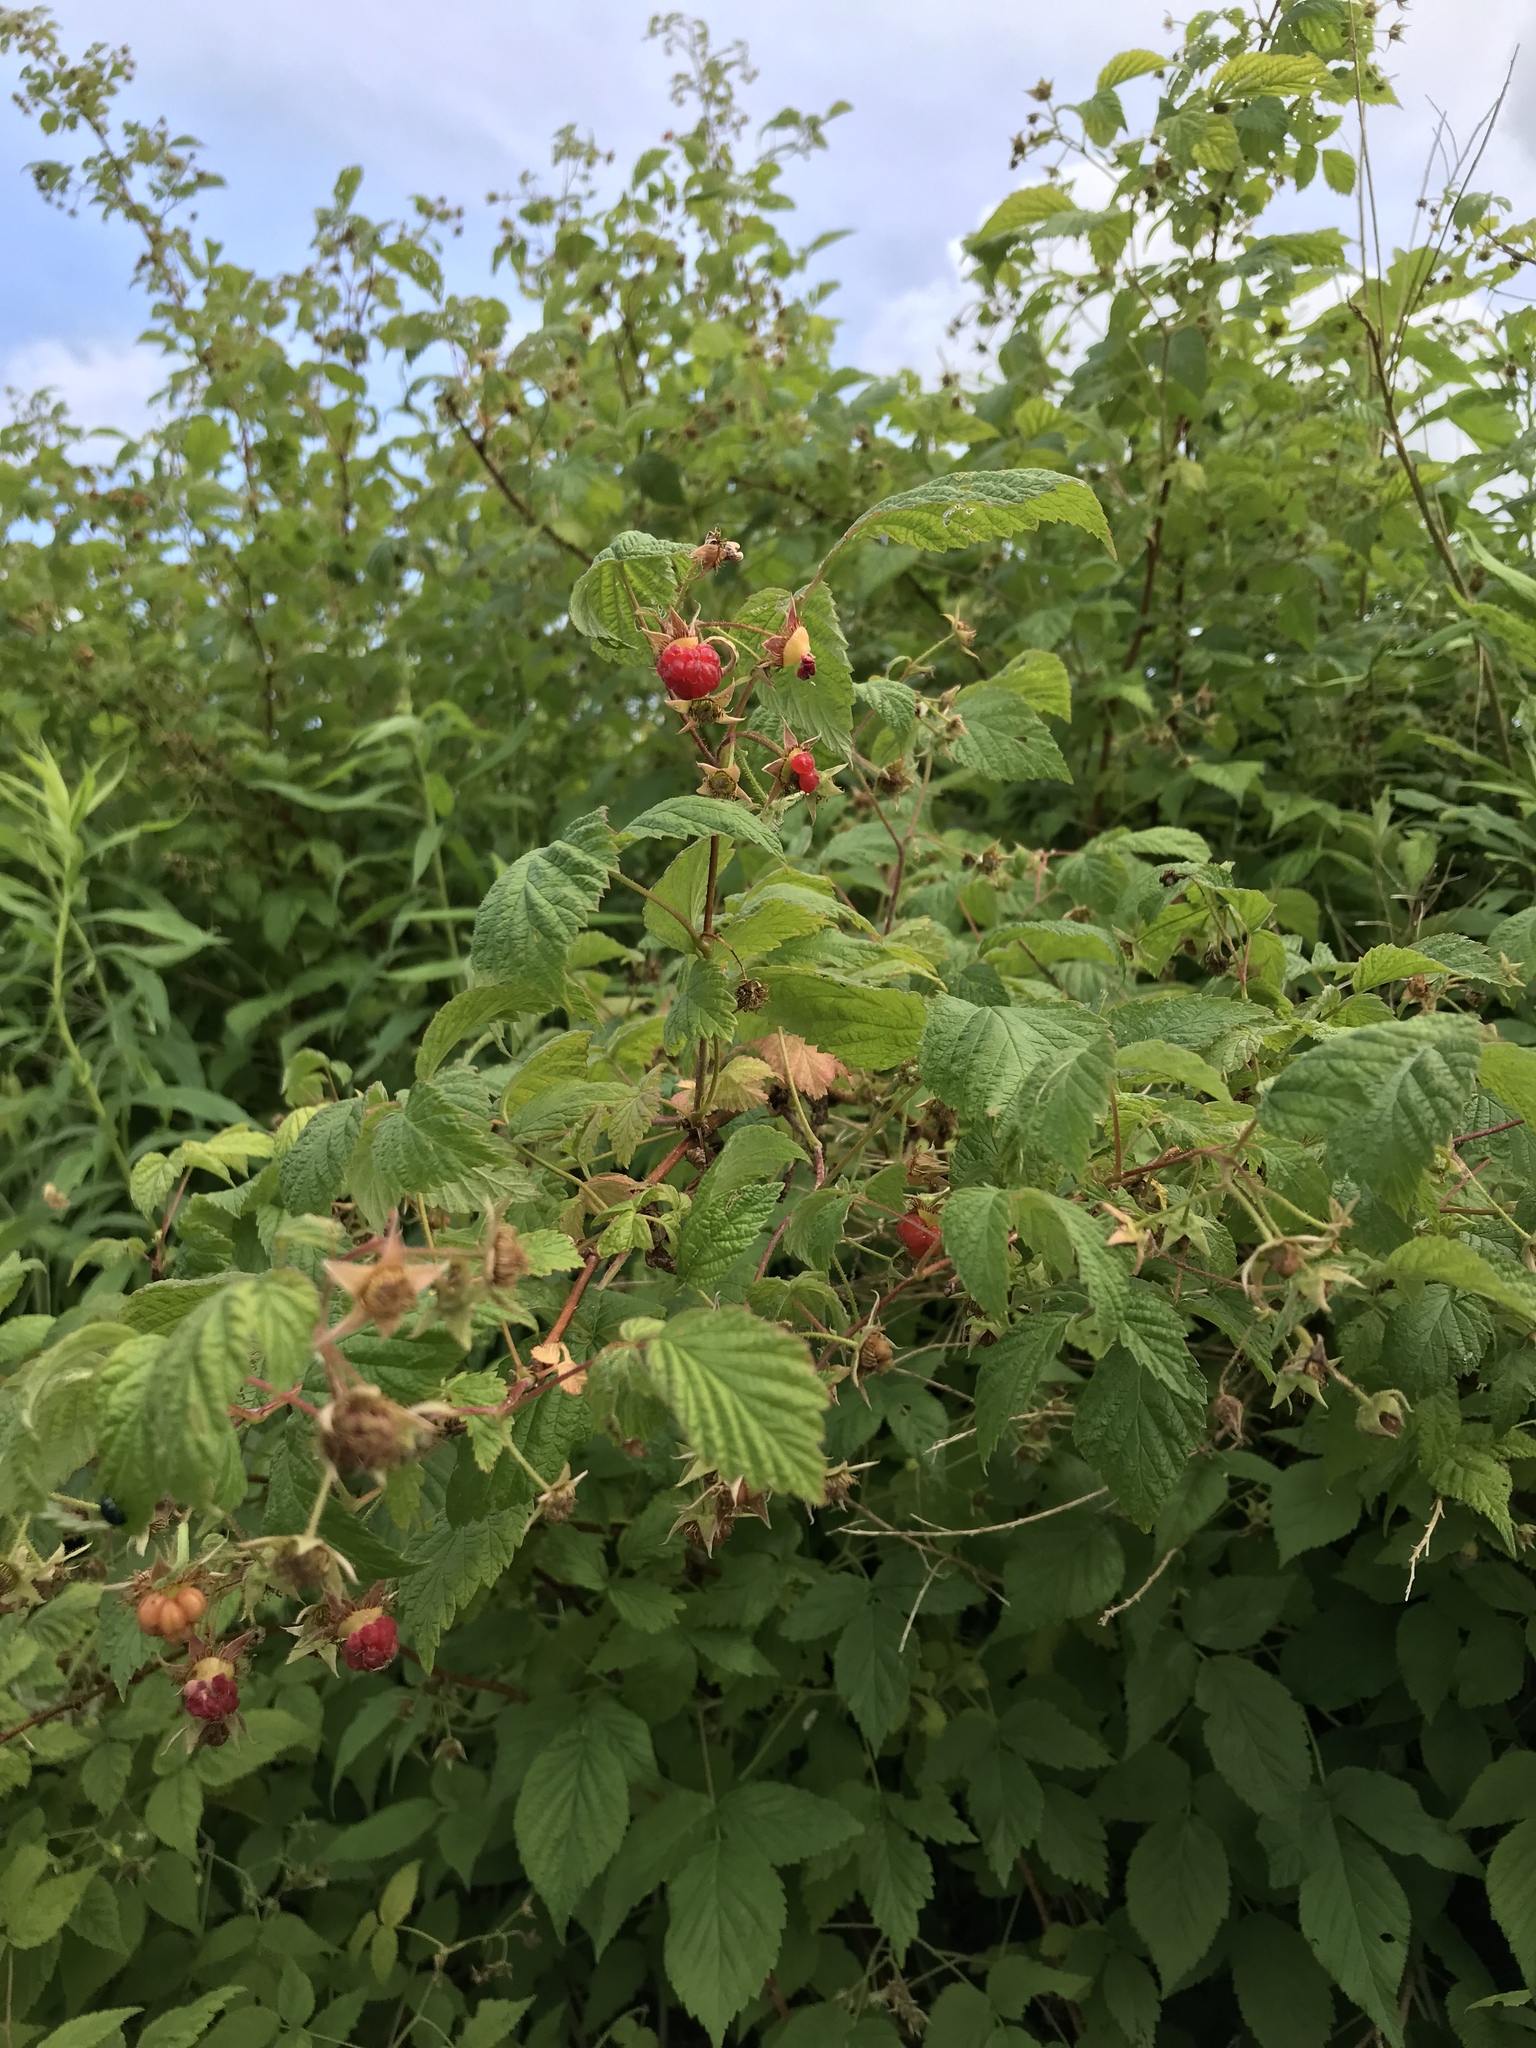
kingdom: Plantae
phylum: Tracheophyta
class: Magnoliopsida
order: Rosales
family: Rosaceae
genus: Rubus
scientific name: Rubus idaeus
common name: Raspberry
